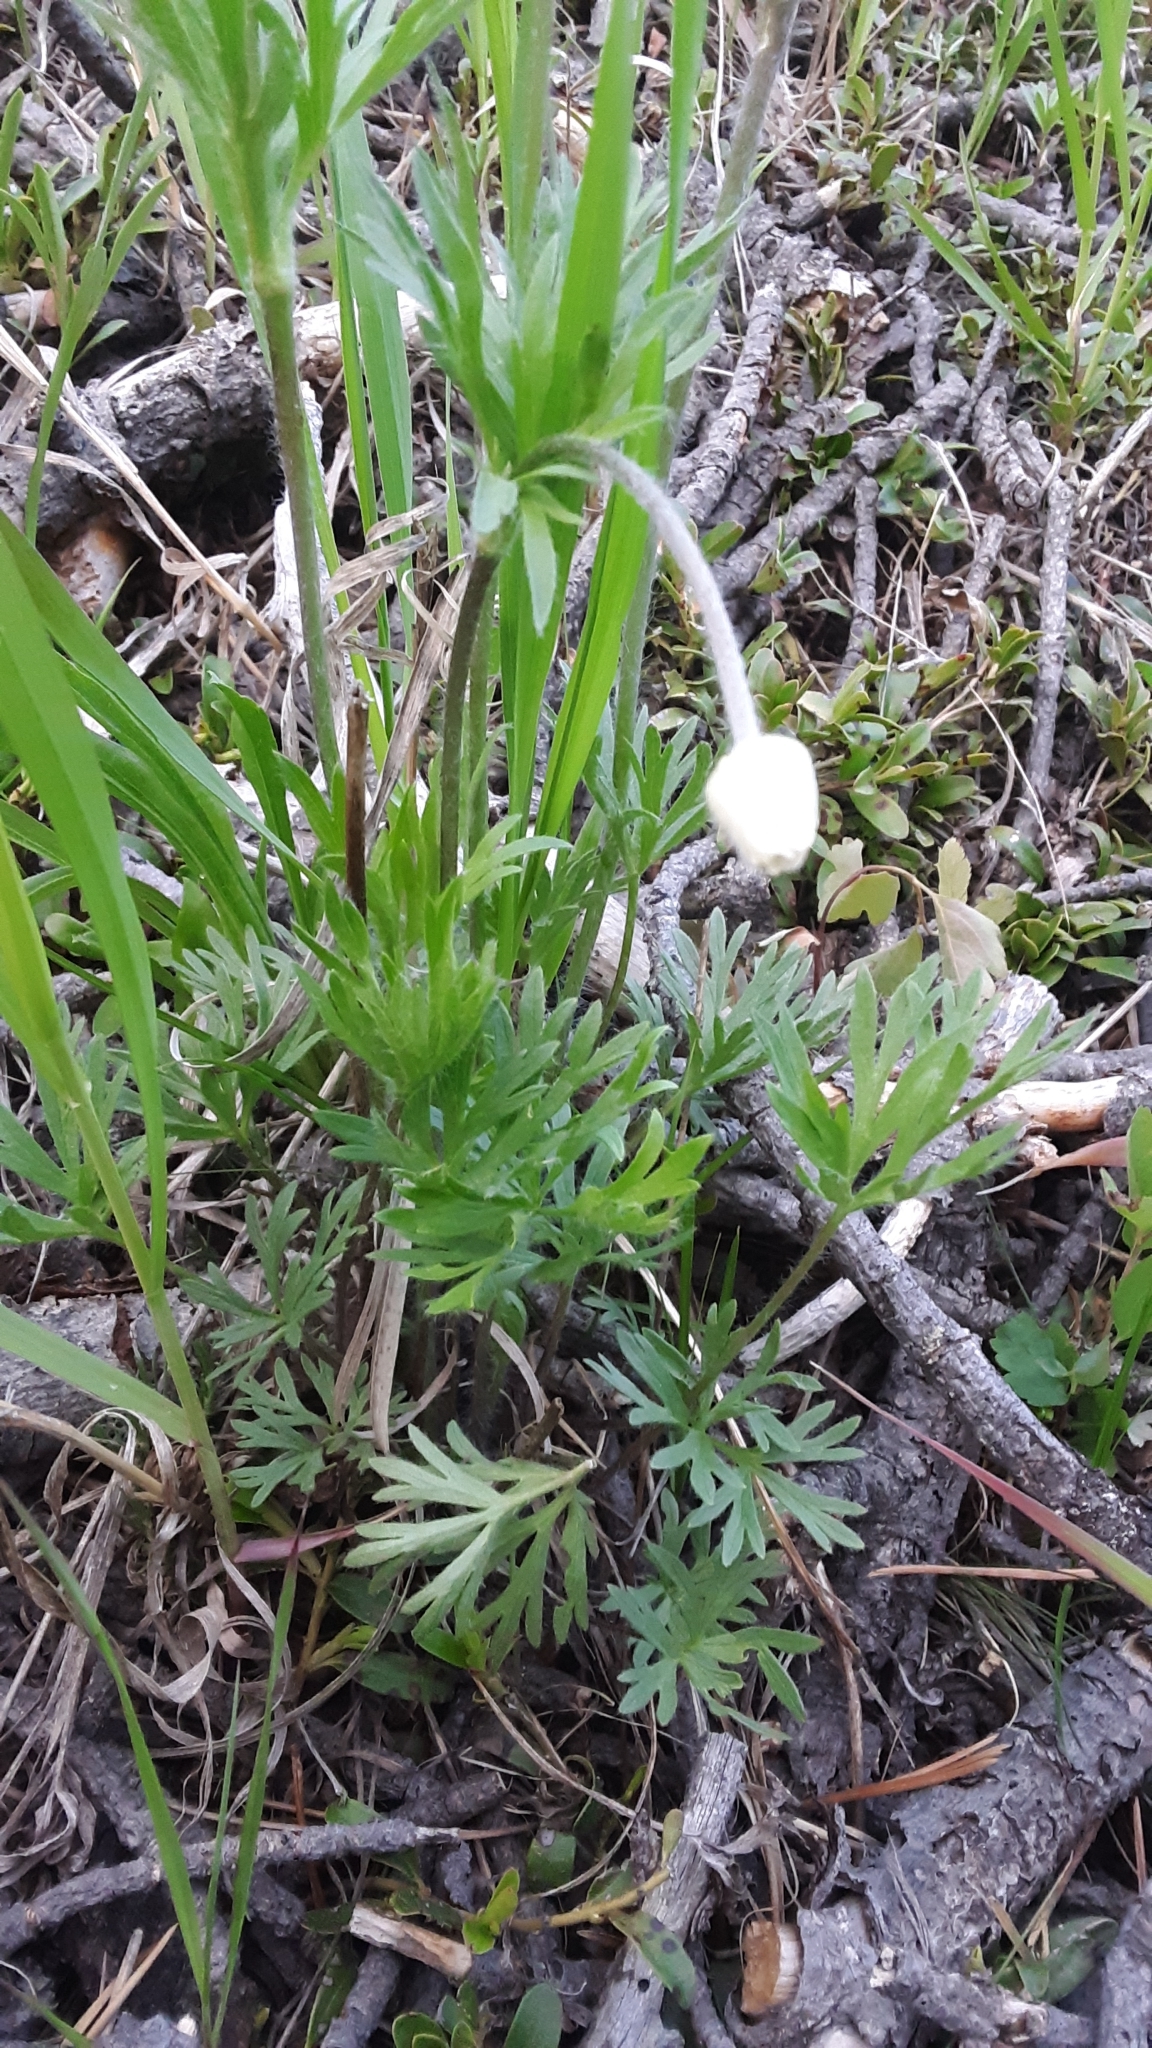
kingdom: Plantae
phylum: Tracheophyta
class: Magnoliopsida
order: Ranunculales
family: Ranunculaceae
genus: Anemone
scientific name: Anemone multifida
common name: Bird's-foot anemone
